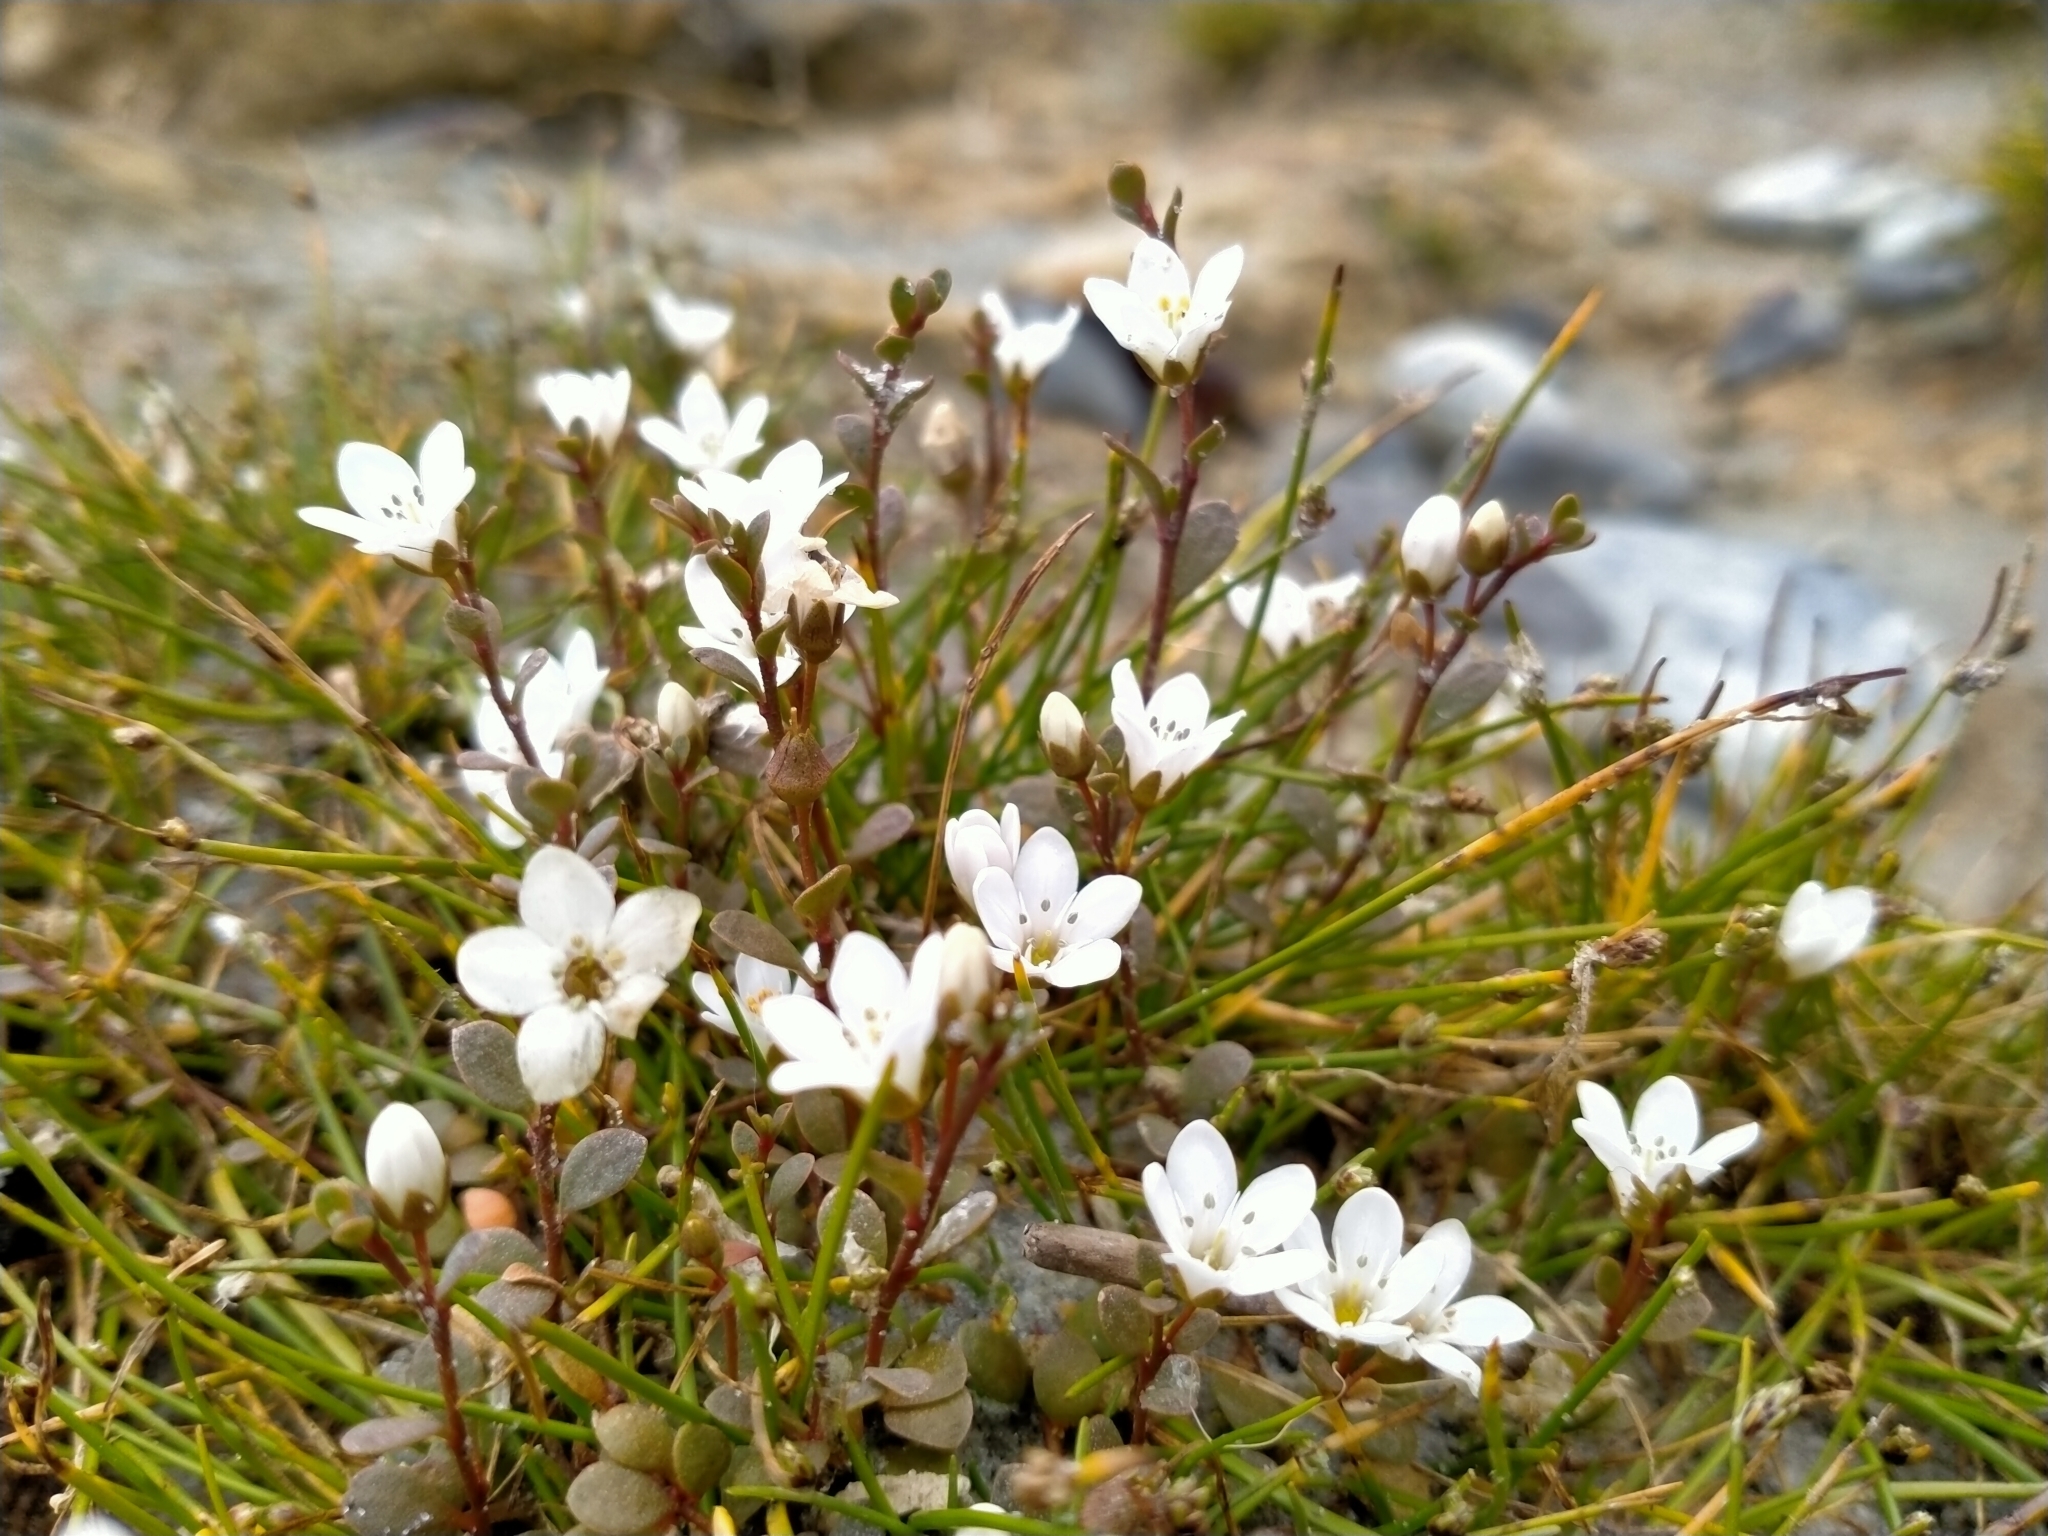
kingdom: Plantae
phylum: Tracheophyta
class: Magnoliopsida
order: Ericales
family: Primulaceae
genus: Samolus
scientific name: Samolus repens
